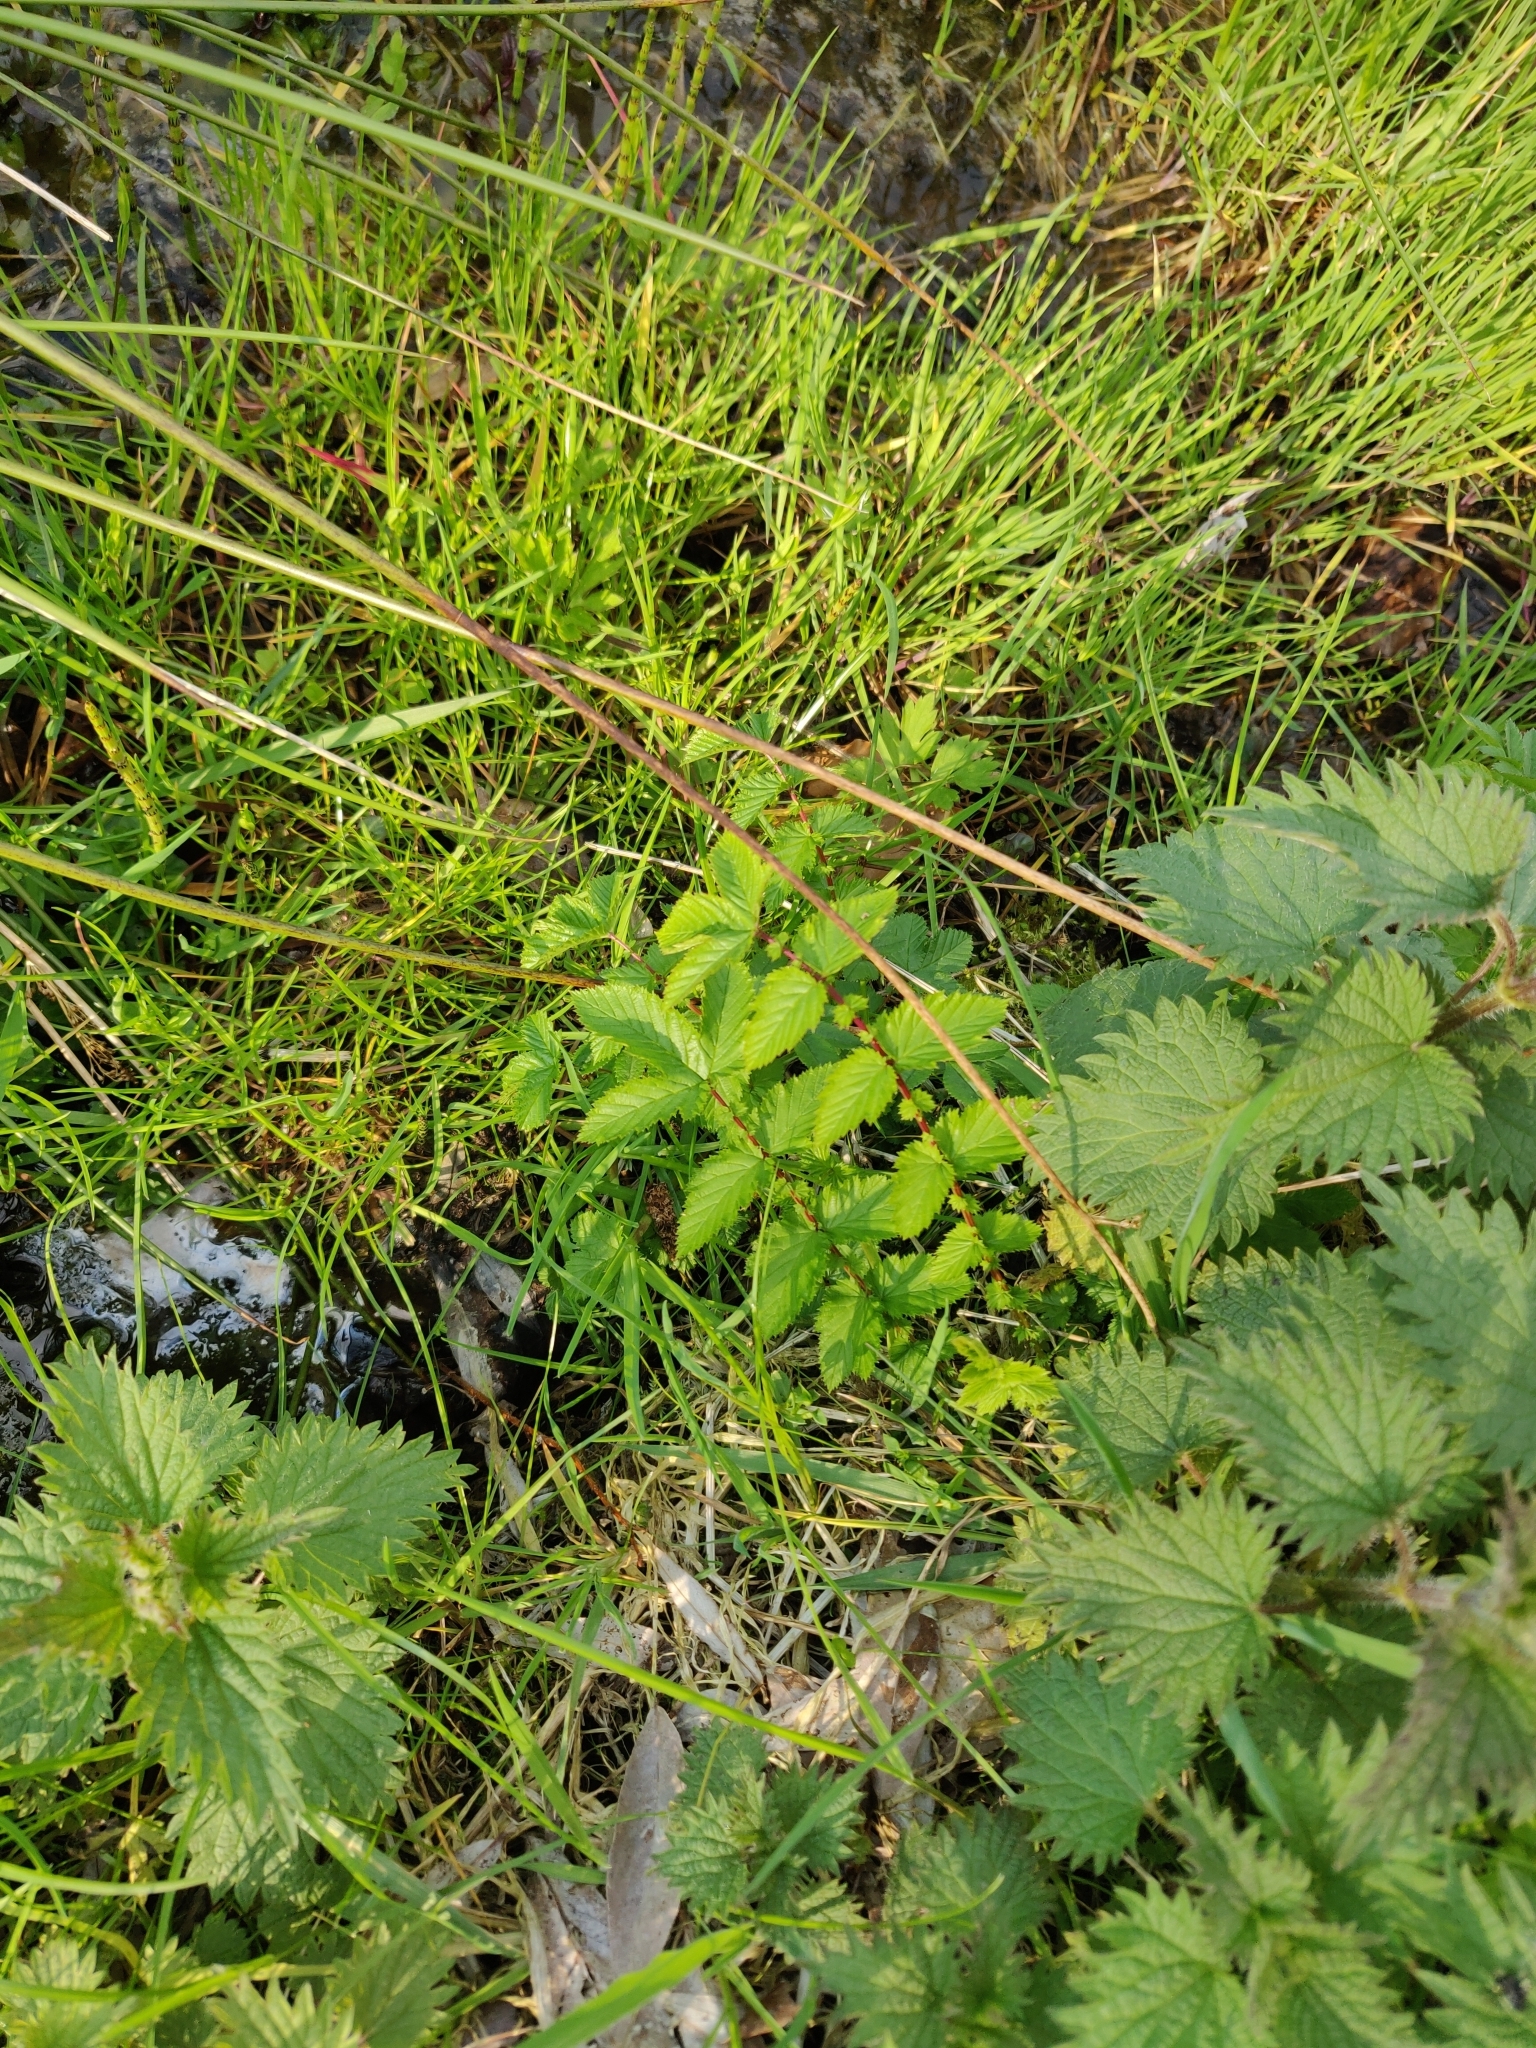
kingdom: Plantae
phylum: Tracheophyta
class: Magnoliopsida
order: Rosales
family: Rosaceae
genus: Filipendula
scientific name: Filipendula ulmaria
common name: Meadowsweet
